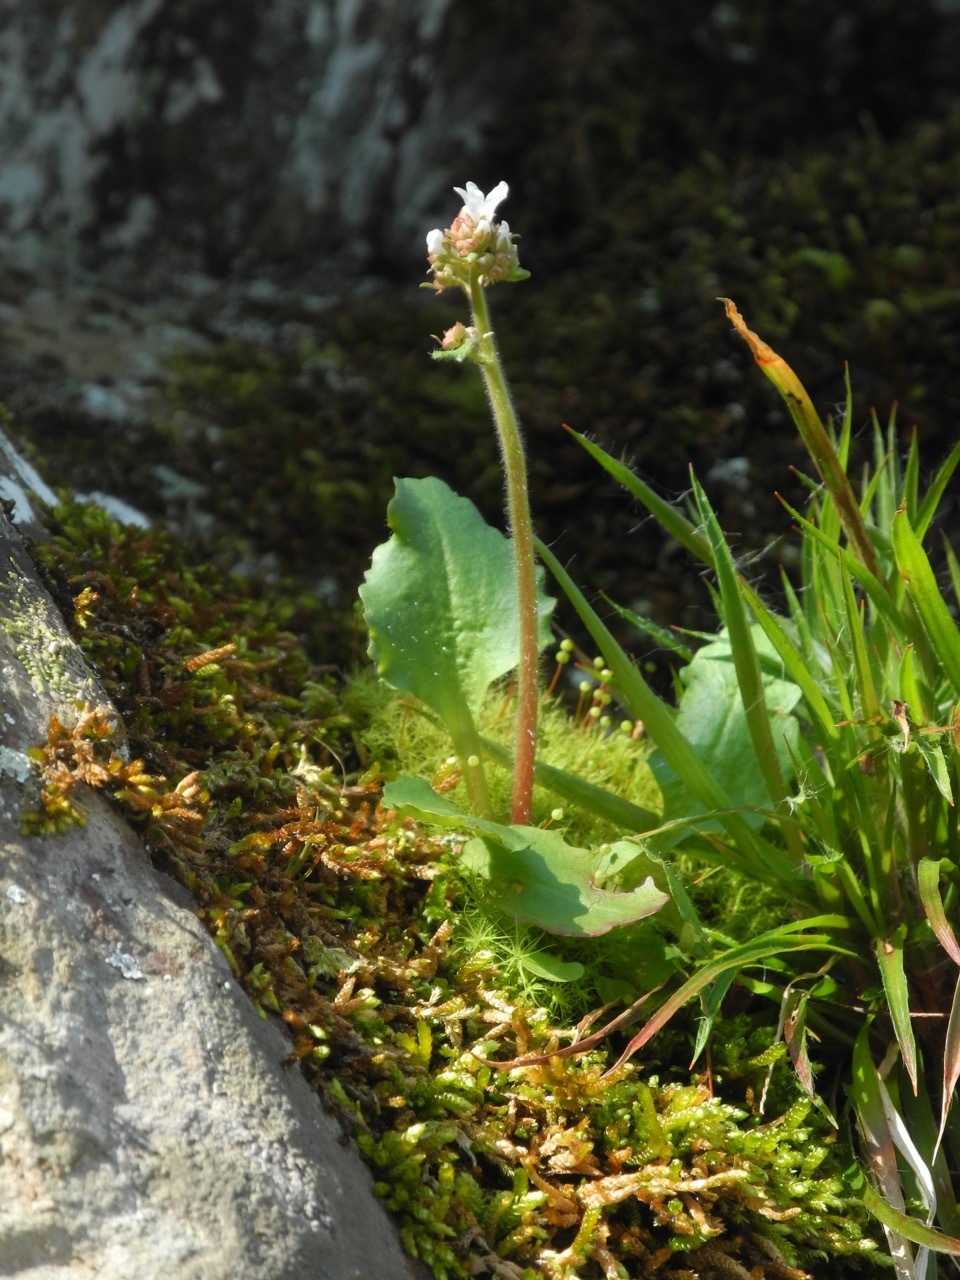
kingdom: Plantae
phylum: Tracheophyta
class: Magnoliopsida
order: Saxifragales
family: Saxifragaceae
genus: Micranthes
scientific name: Micranthes virginiensis
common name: Early saxifrage
